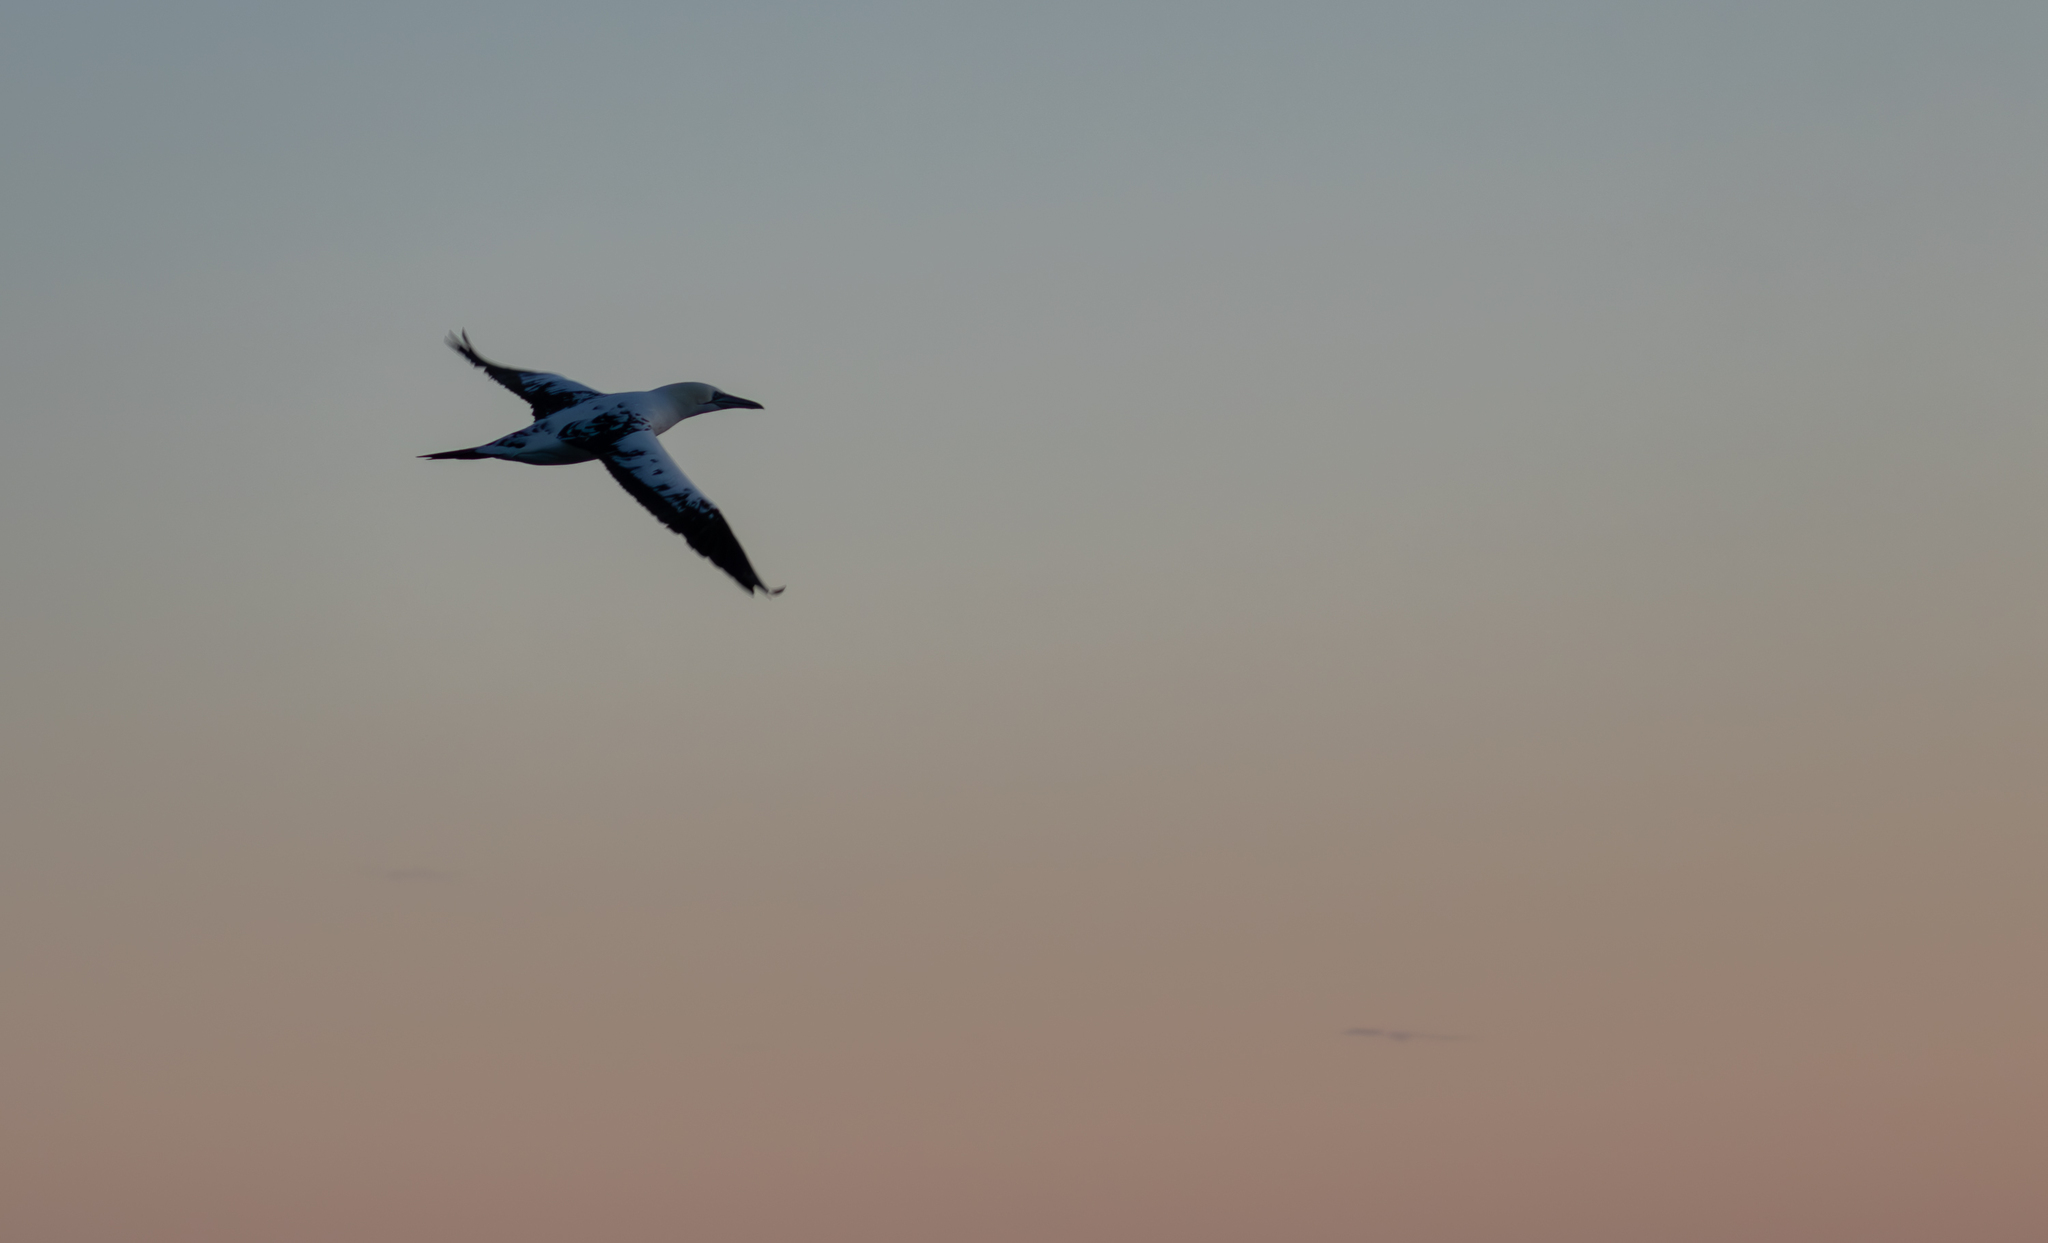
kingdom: Animalia
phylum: Chordata
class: Aves
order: Suliformes
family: Sulidae
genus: Morus
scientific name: Morus bassanus
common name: Northern gannet
